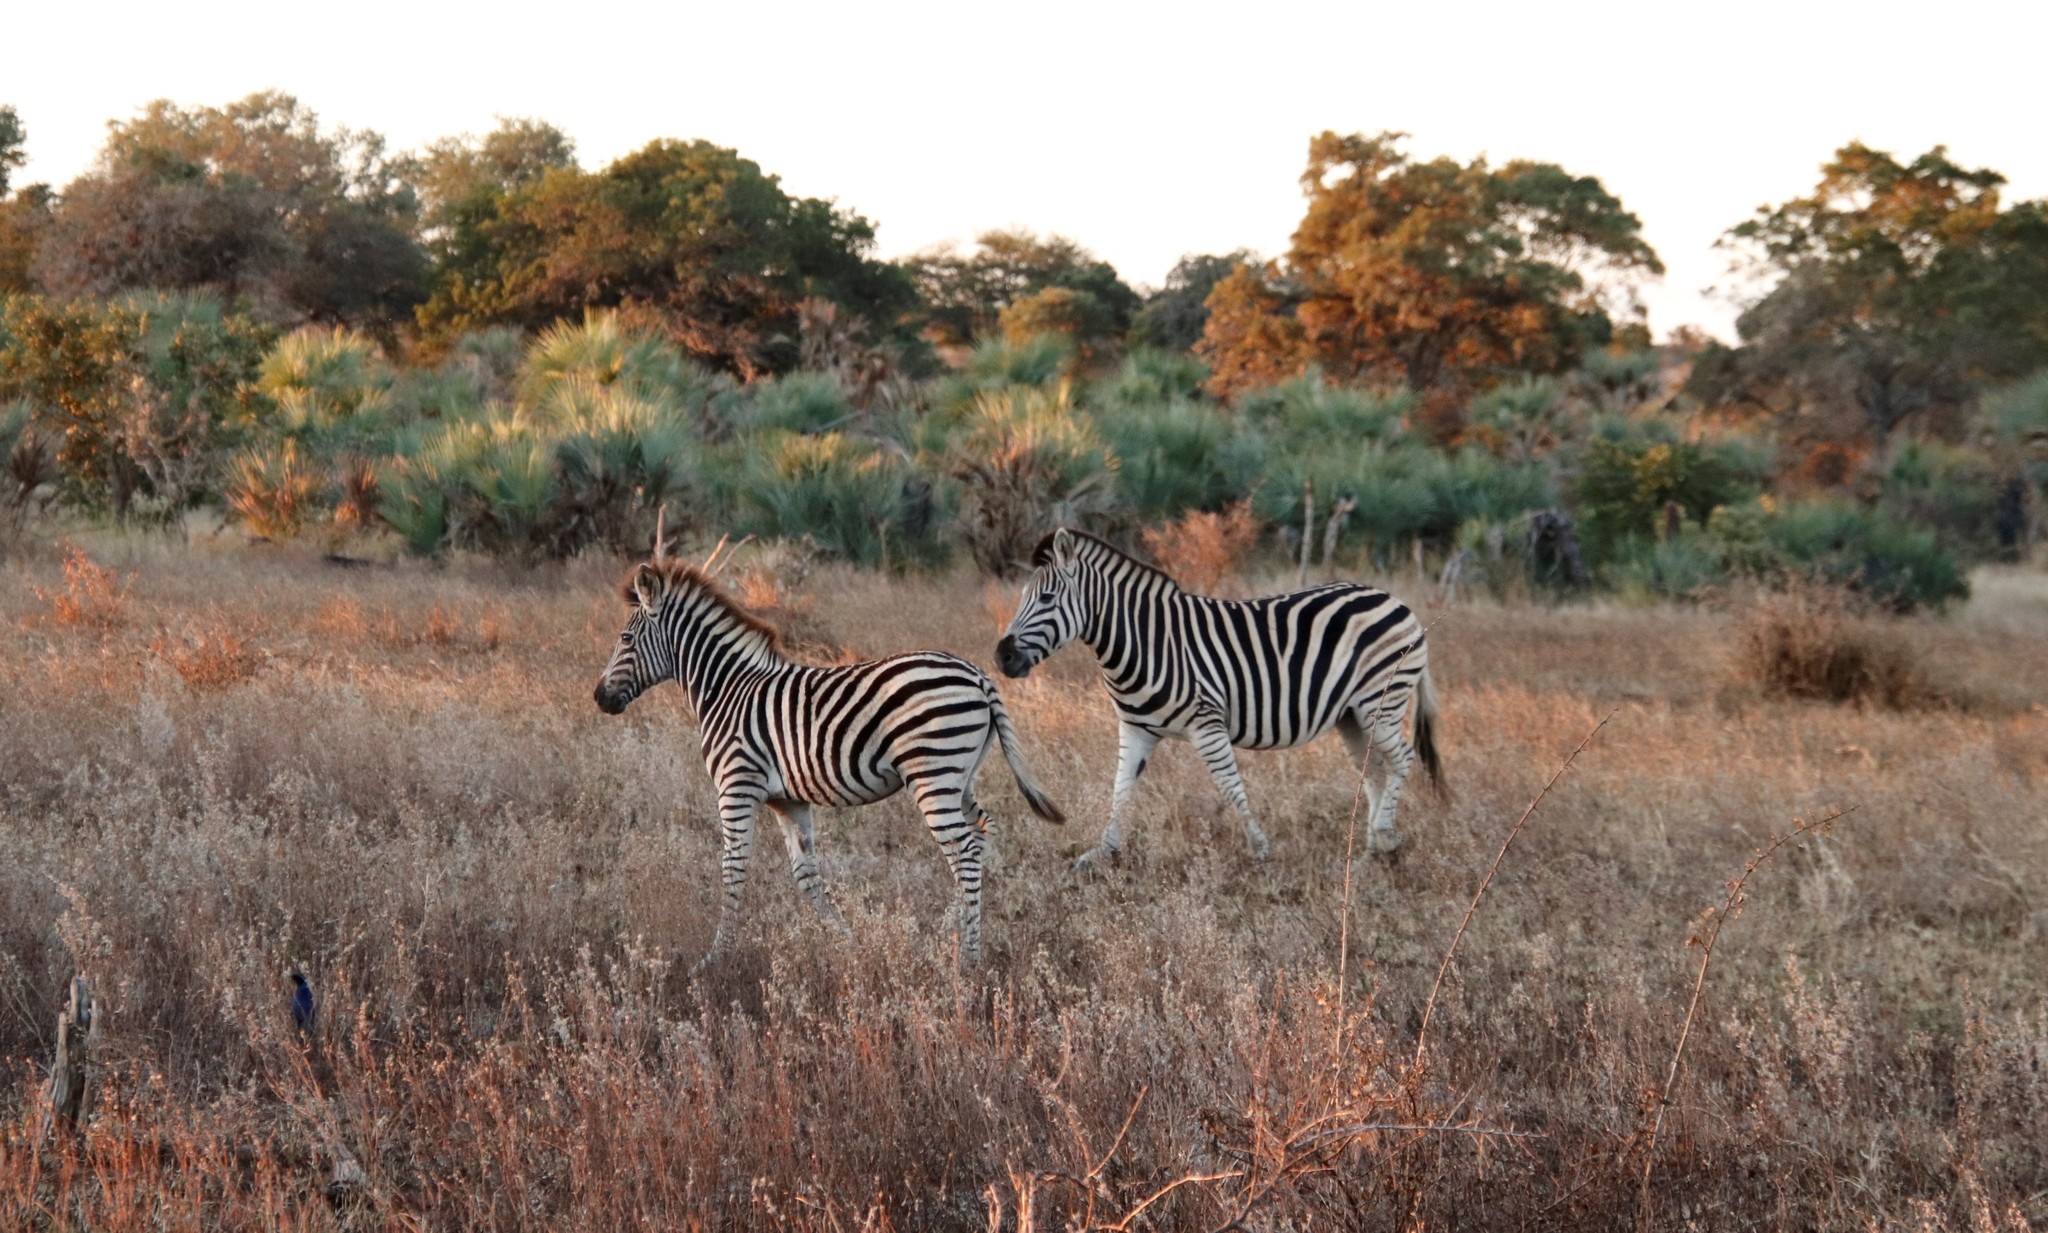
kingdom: Animalia
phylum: Chordata
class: Mammalia
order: Perissodactyla
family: Equidae
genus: Equus
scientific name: Equus quagga
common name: Plains zebra
